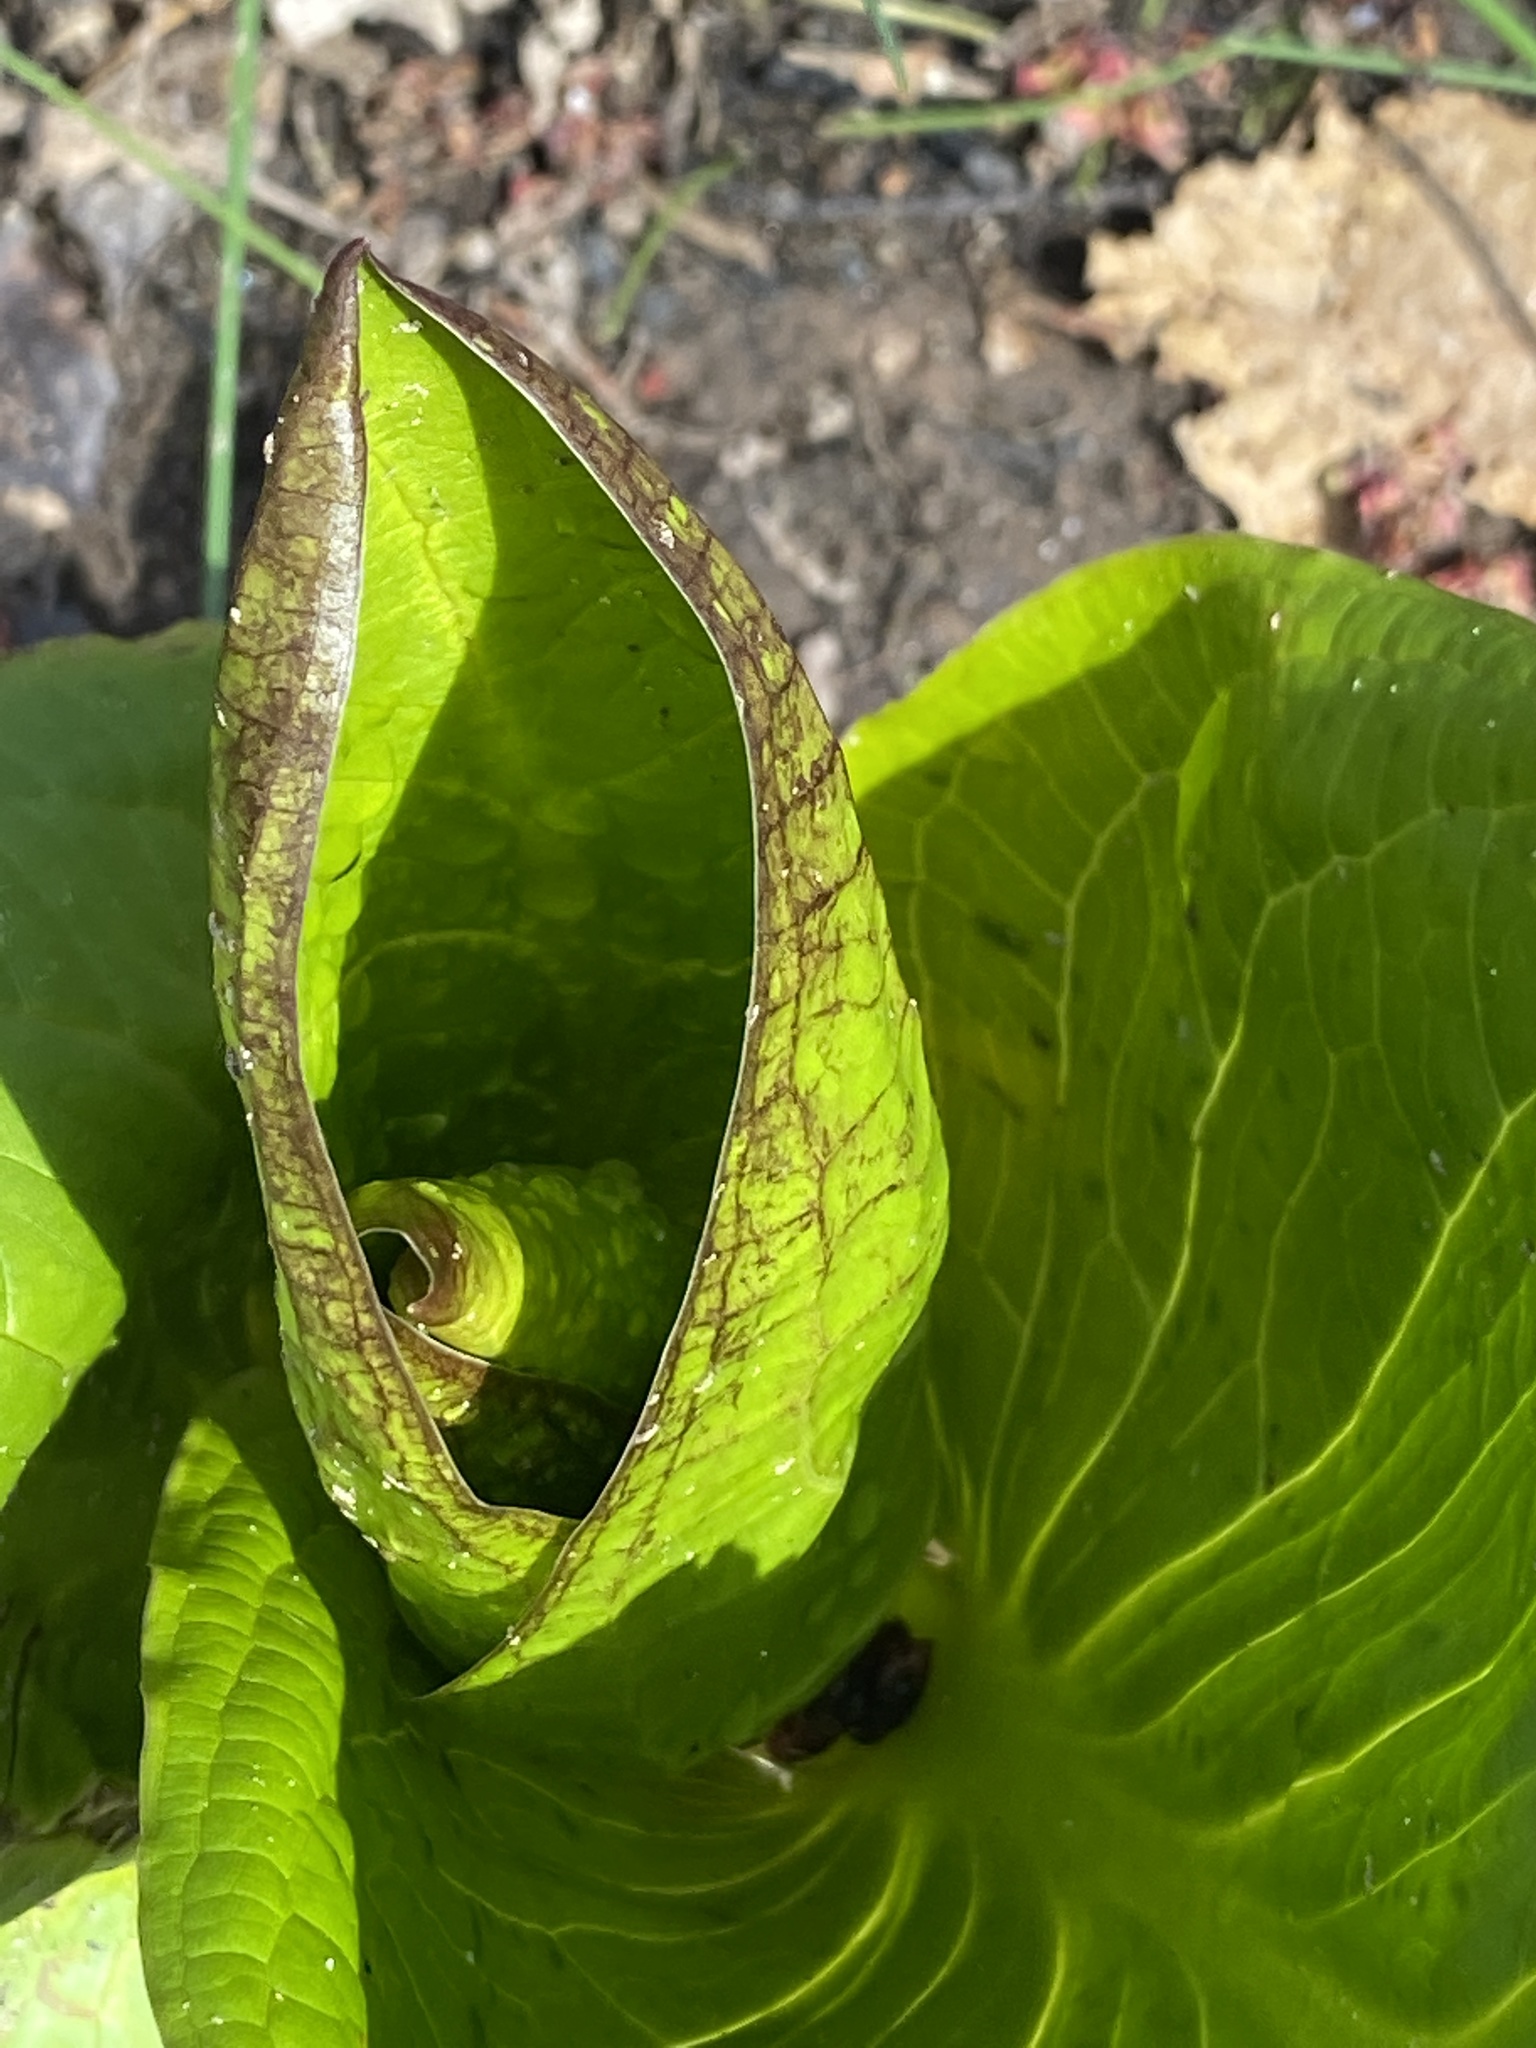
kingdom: Plantae
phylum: Tracheophyta
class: Liliopsida
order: Alismatales
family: Araceae
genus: Symplocarpus
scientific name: Symplocarpus foetidus
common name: Eastern skunk cabbage
